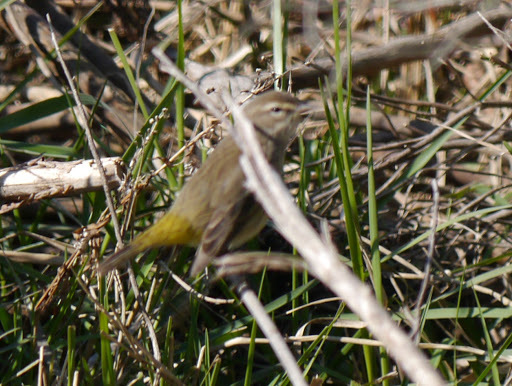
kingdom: Animalia
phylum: Chordata
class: Aves
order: Passeriformes
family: Parulidae
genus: Setophaga
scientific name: Setophaga palmarum
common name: Palm warbler
